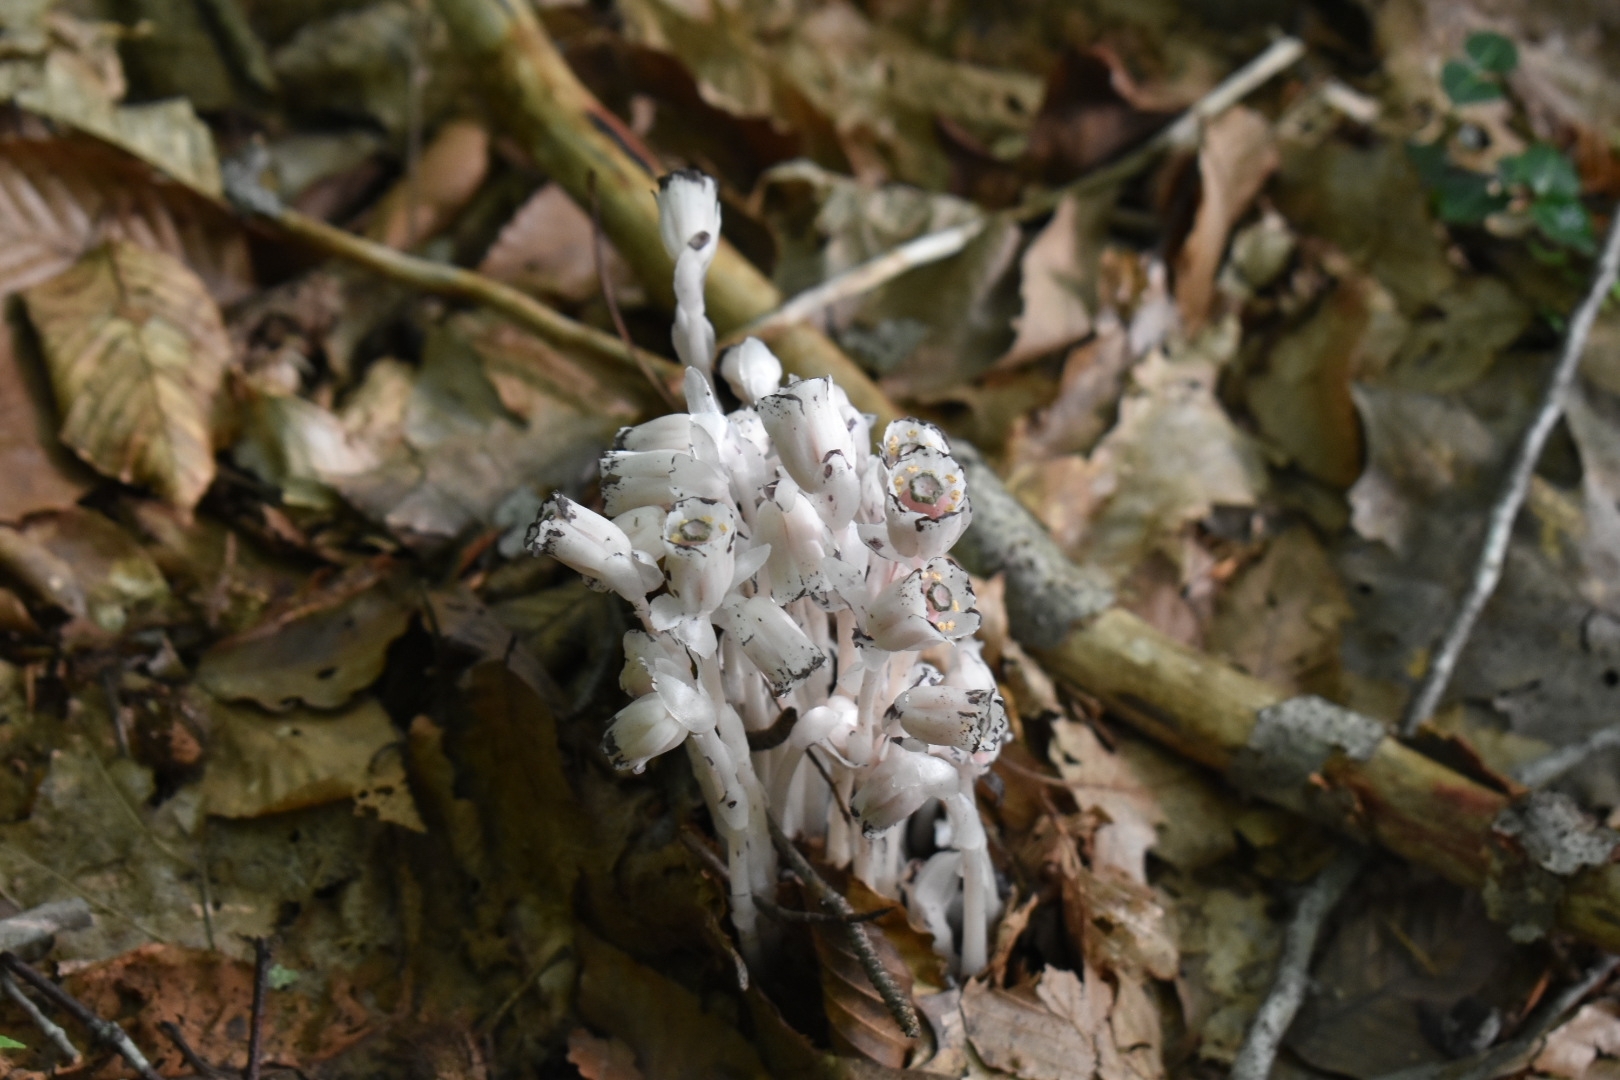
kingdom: Plantae
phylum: Tracheophyta
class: Magnoliopsida
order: Ericales
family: Ericaceae
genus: Monotropa
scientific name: Monotropa uniflora
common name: Convulsion root
